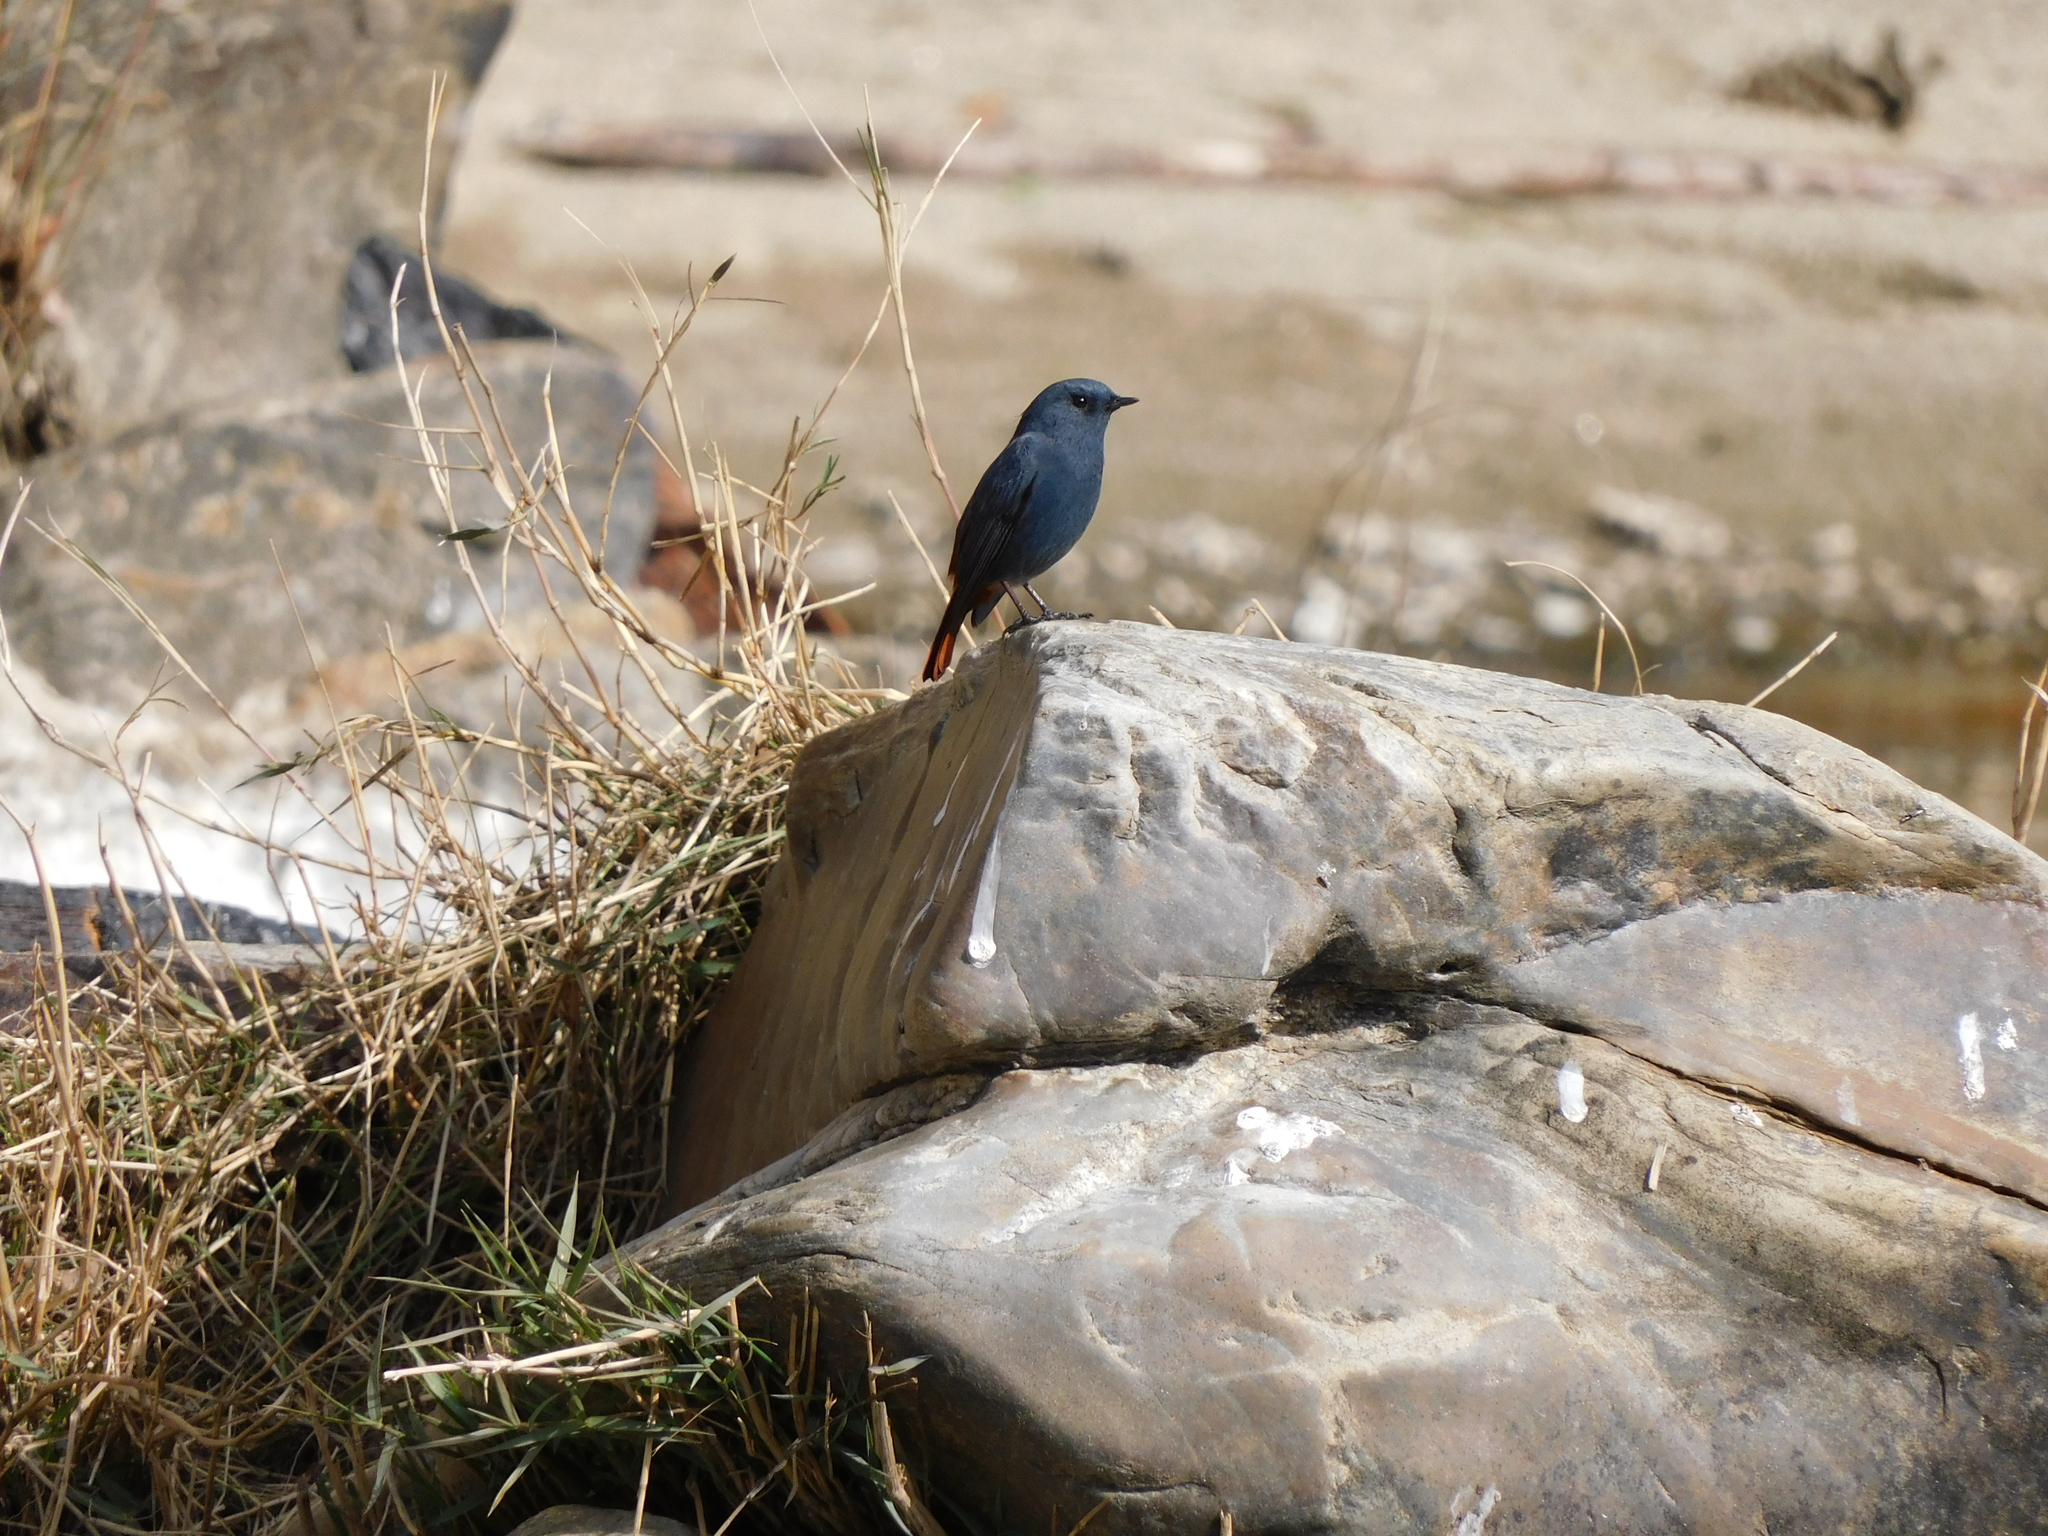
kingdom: Animalia
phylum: Chordata
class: Aves
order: Passeriformes
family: Muscicapidae
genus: Phoenicurus
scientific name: Phoenicurus fuliginosus
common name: Plumbeous water redstart
